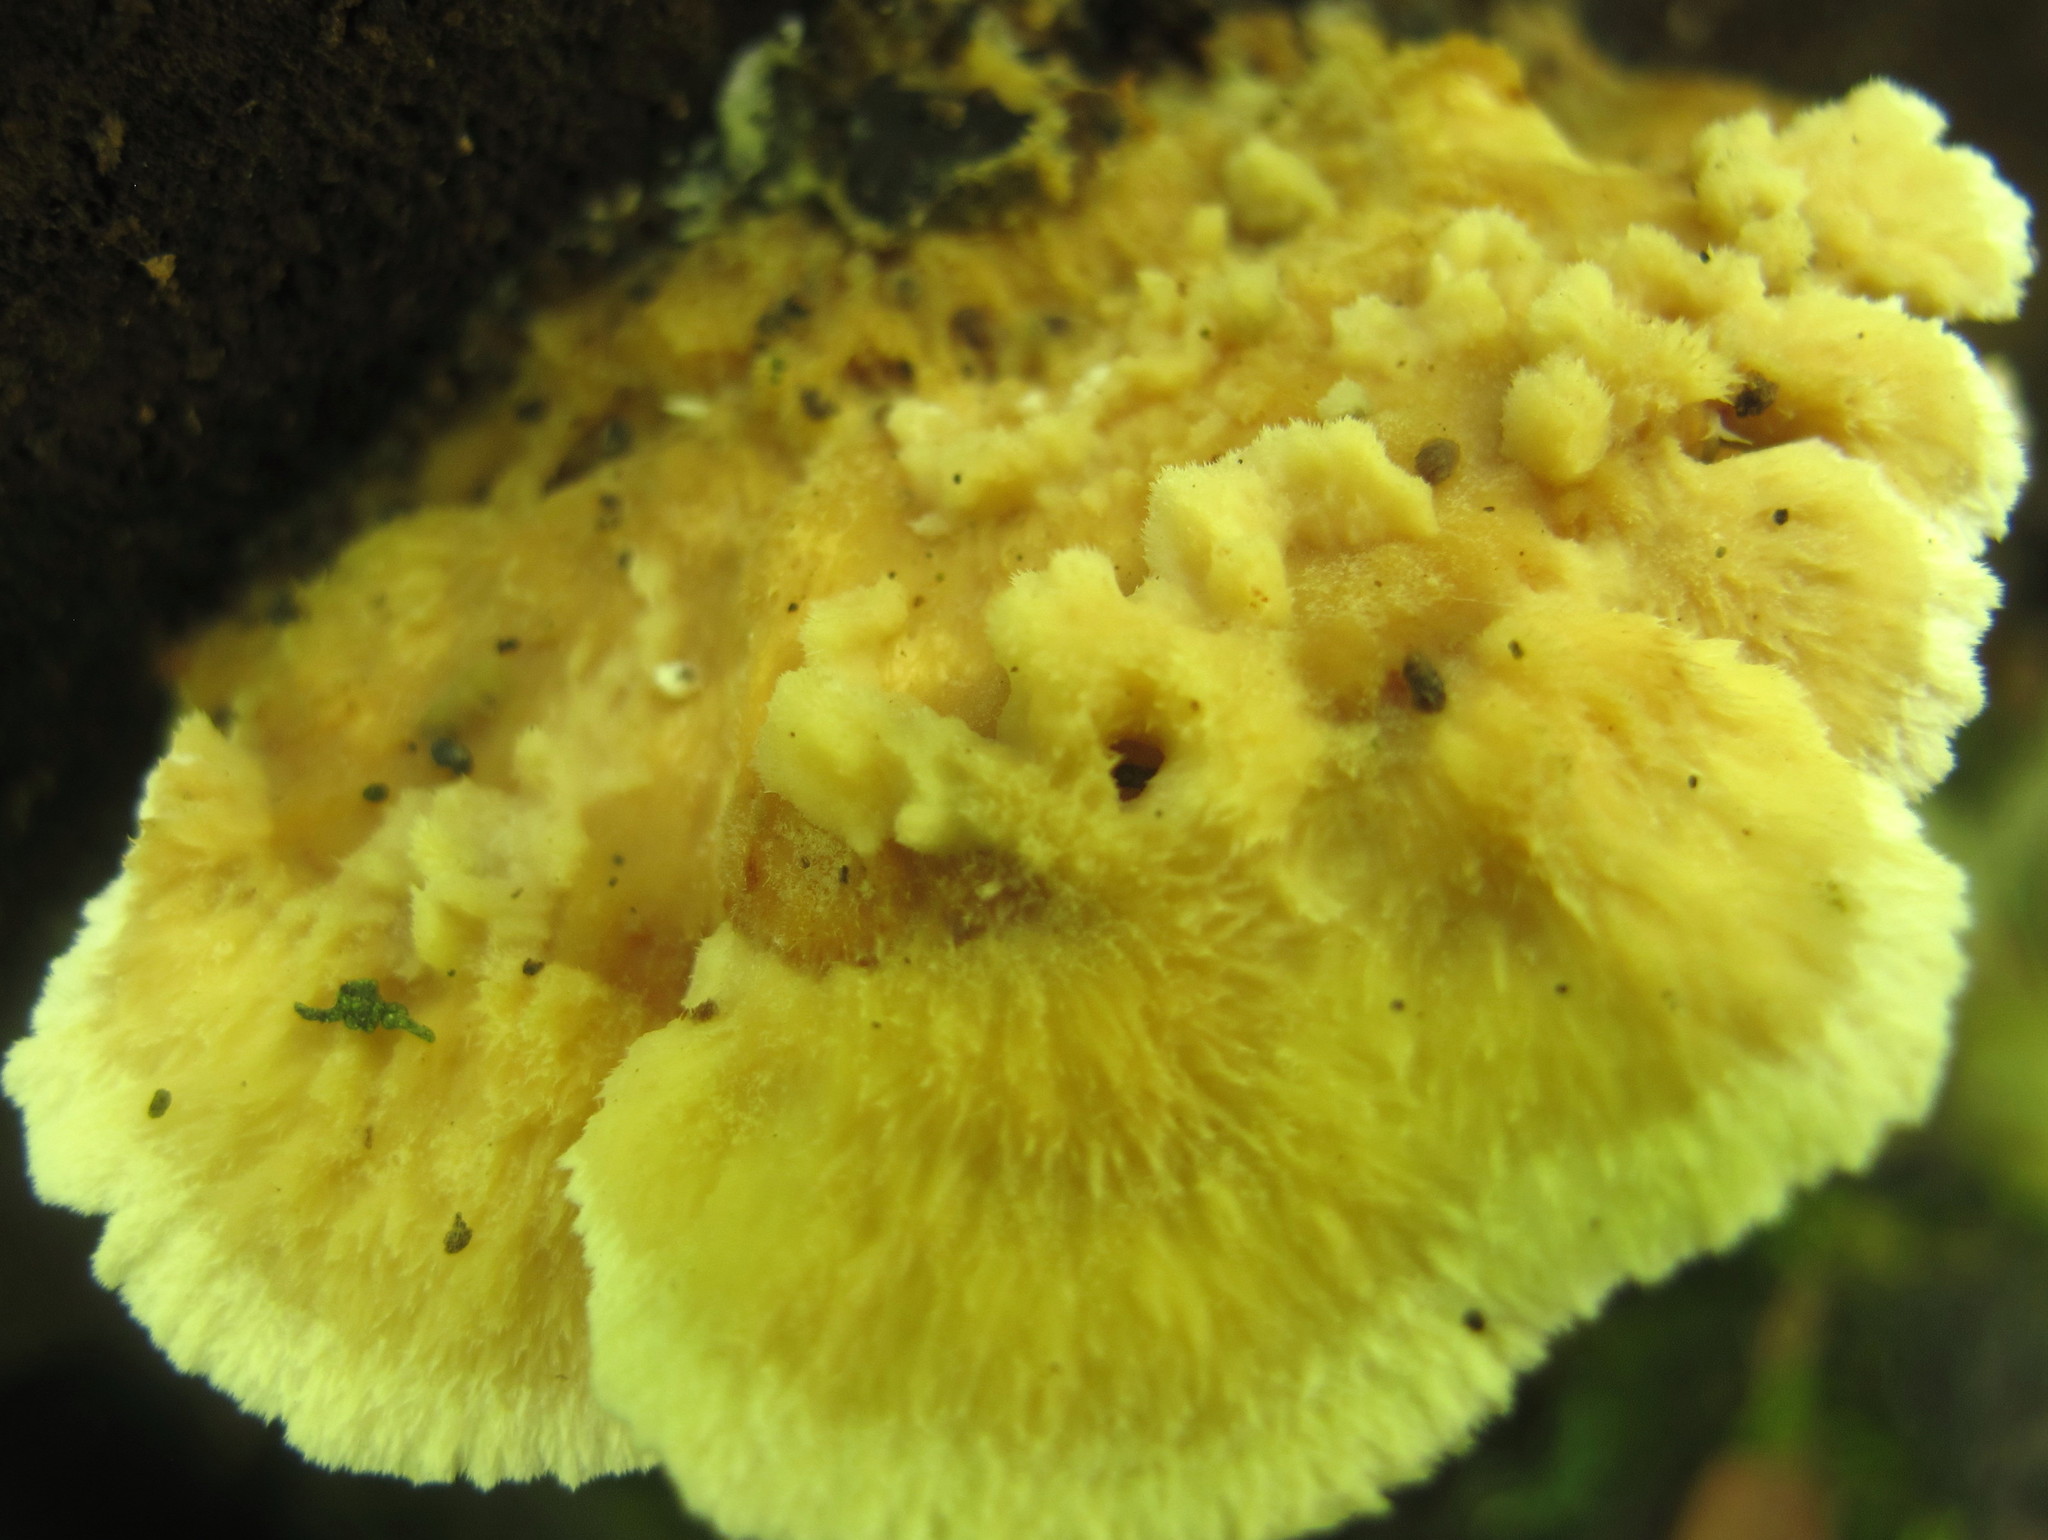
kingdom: Fungi
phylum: Basidiomycota
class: Agaricomycetes
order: Polyporales
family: Pycnoporellaceae
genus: Pycnoporellus
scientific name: Pycnoporellus fulgens
